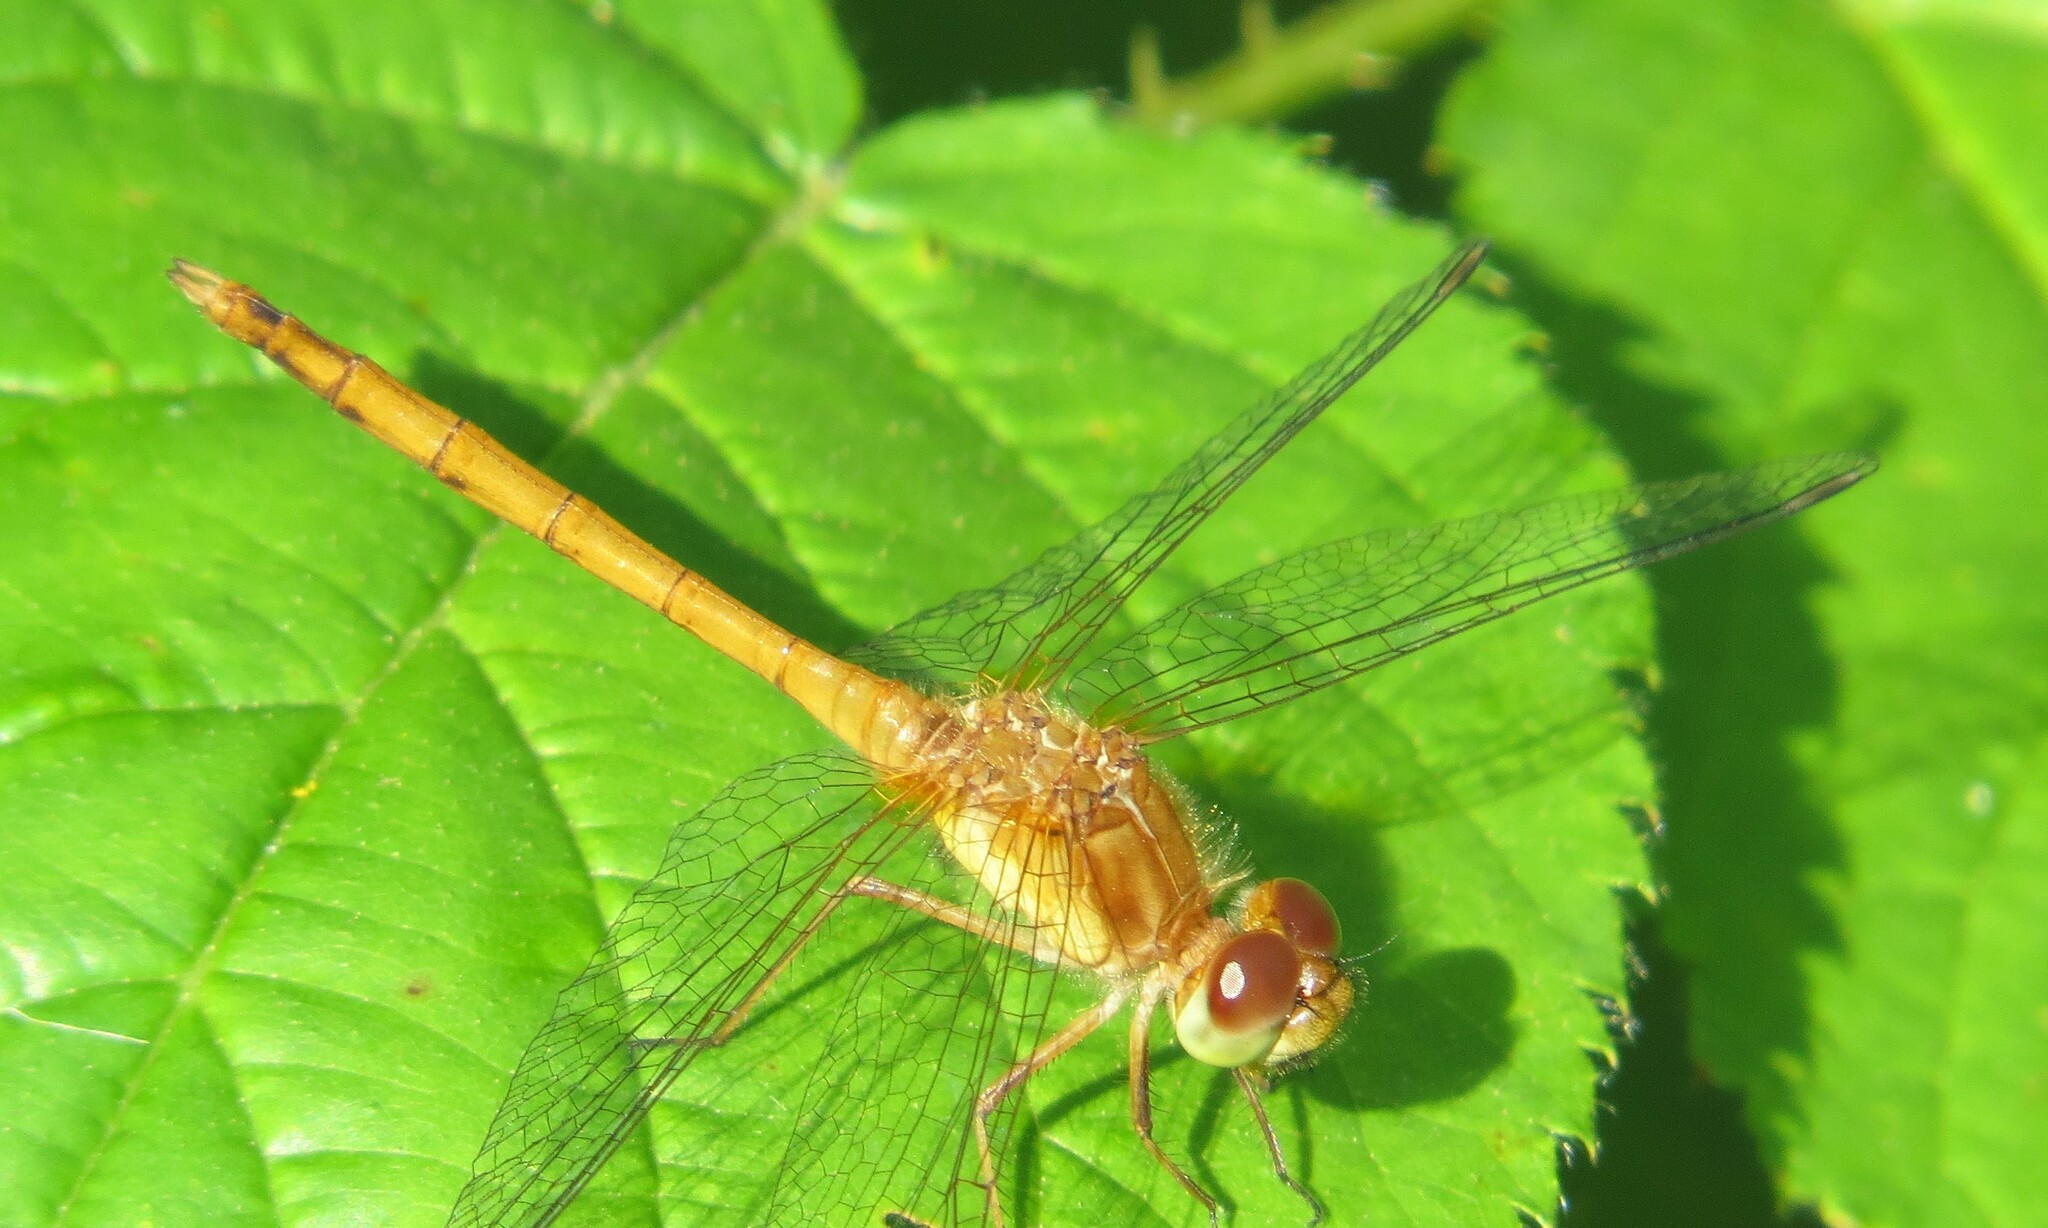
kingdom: Animalia
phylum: Arthropoda
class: Insecta
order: Odonata
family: Libellulidae
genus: Sympetrum
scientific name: Sympetrum vicinum
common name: Autumn meadowhawk
